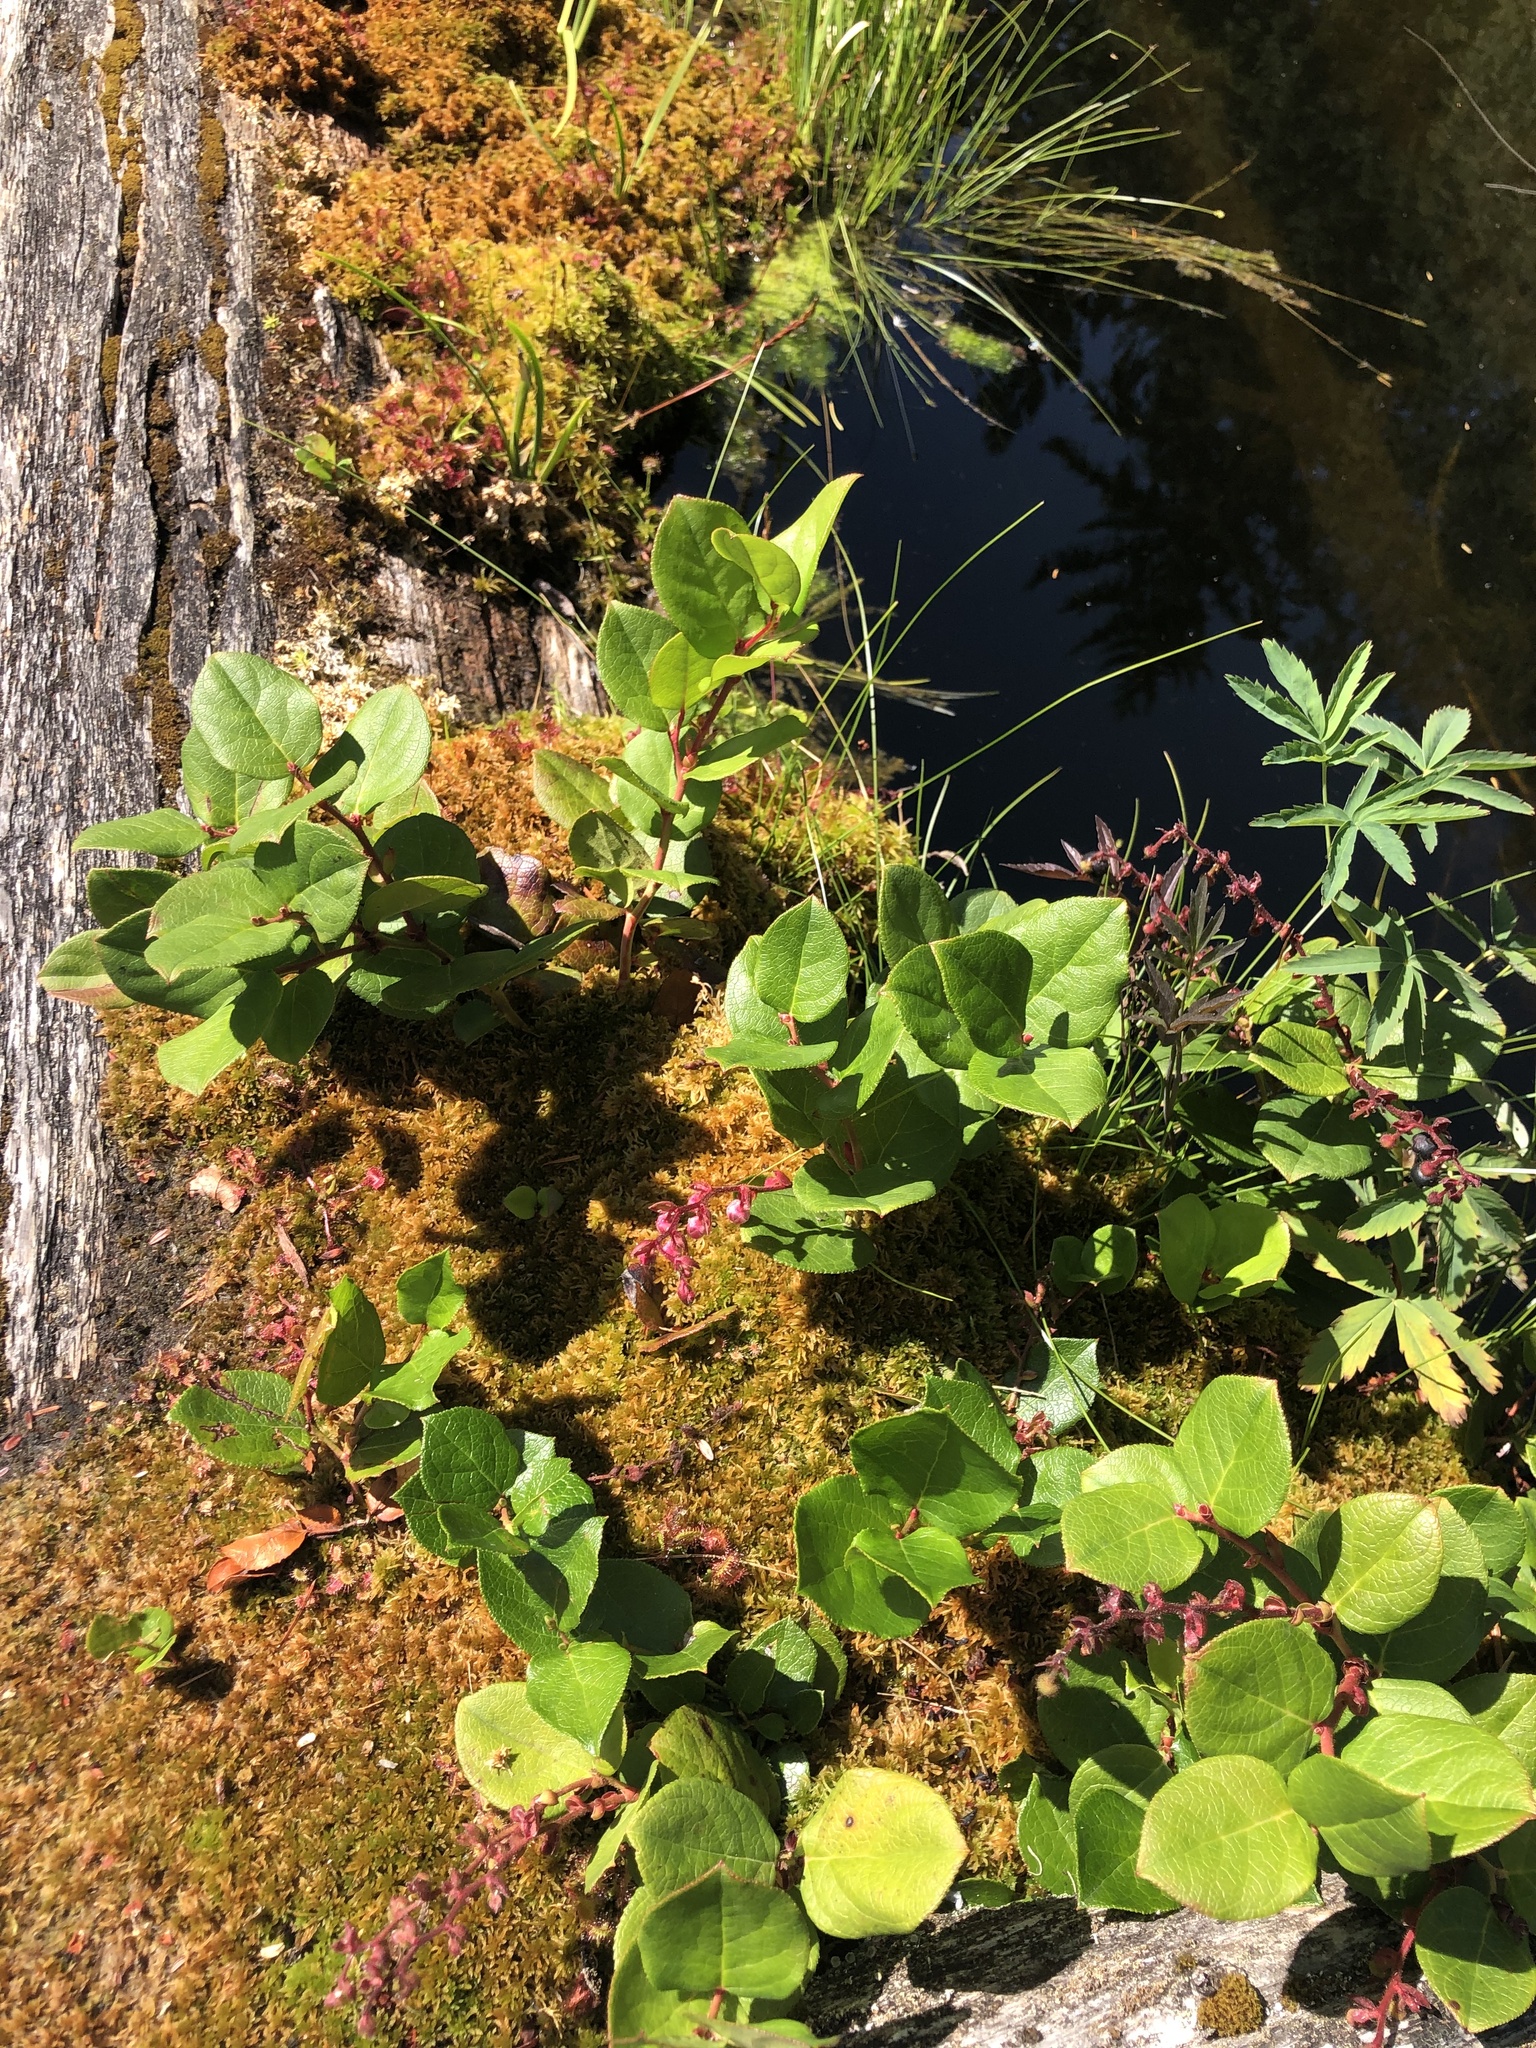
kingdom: Plantae
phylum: Tracheophyta
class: Magnoliopsida
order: Ericales
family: Ericaceae
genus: Gaultheria
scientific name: Gaultheria shallon
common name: Shallon
